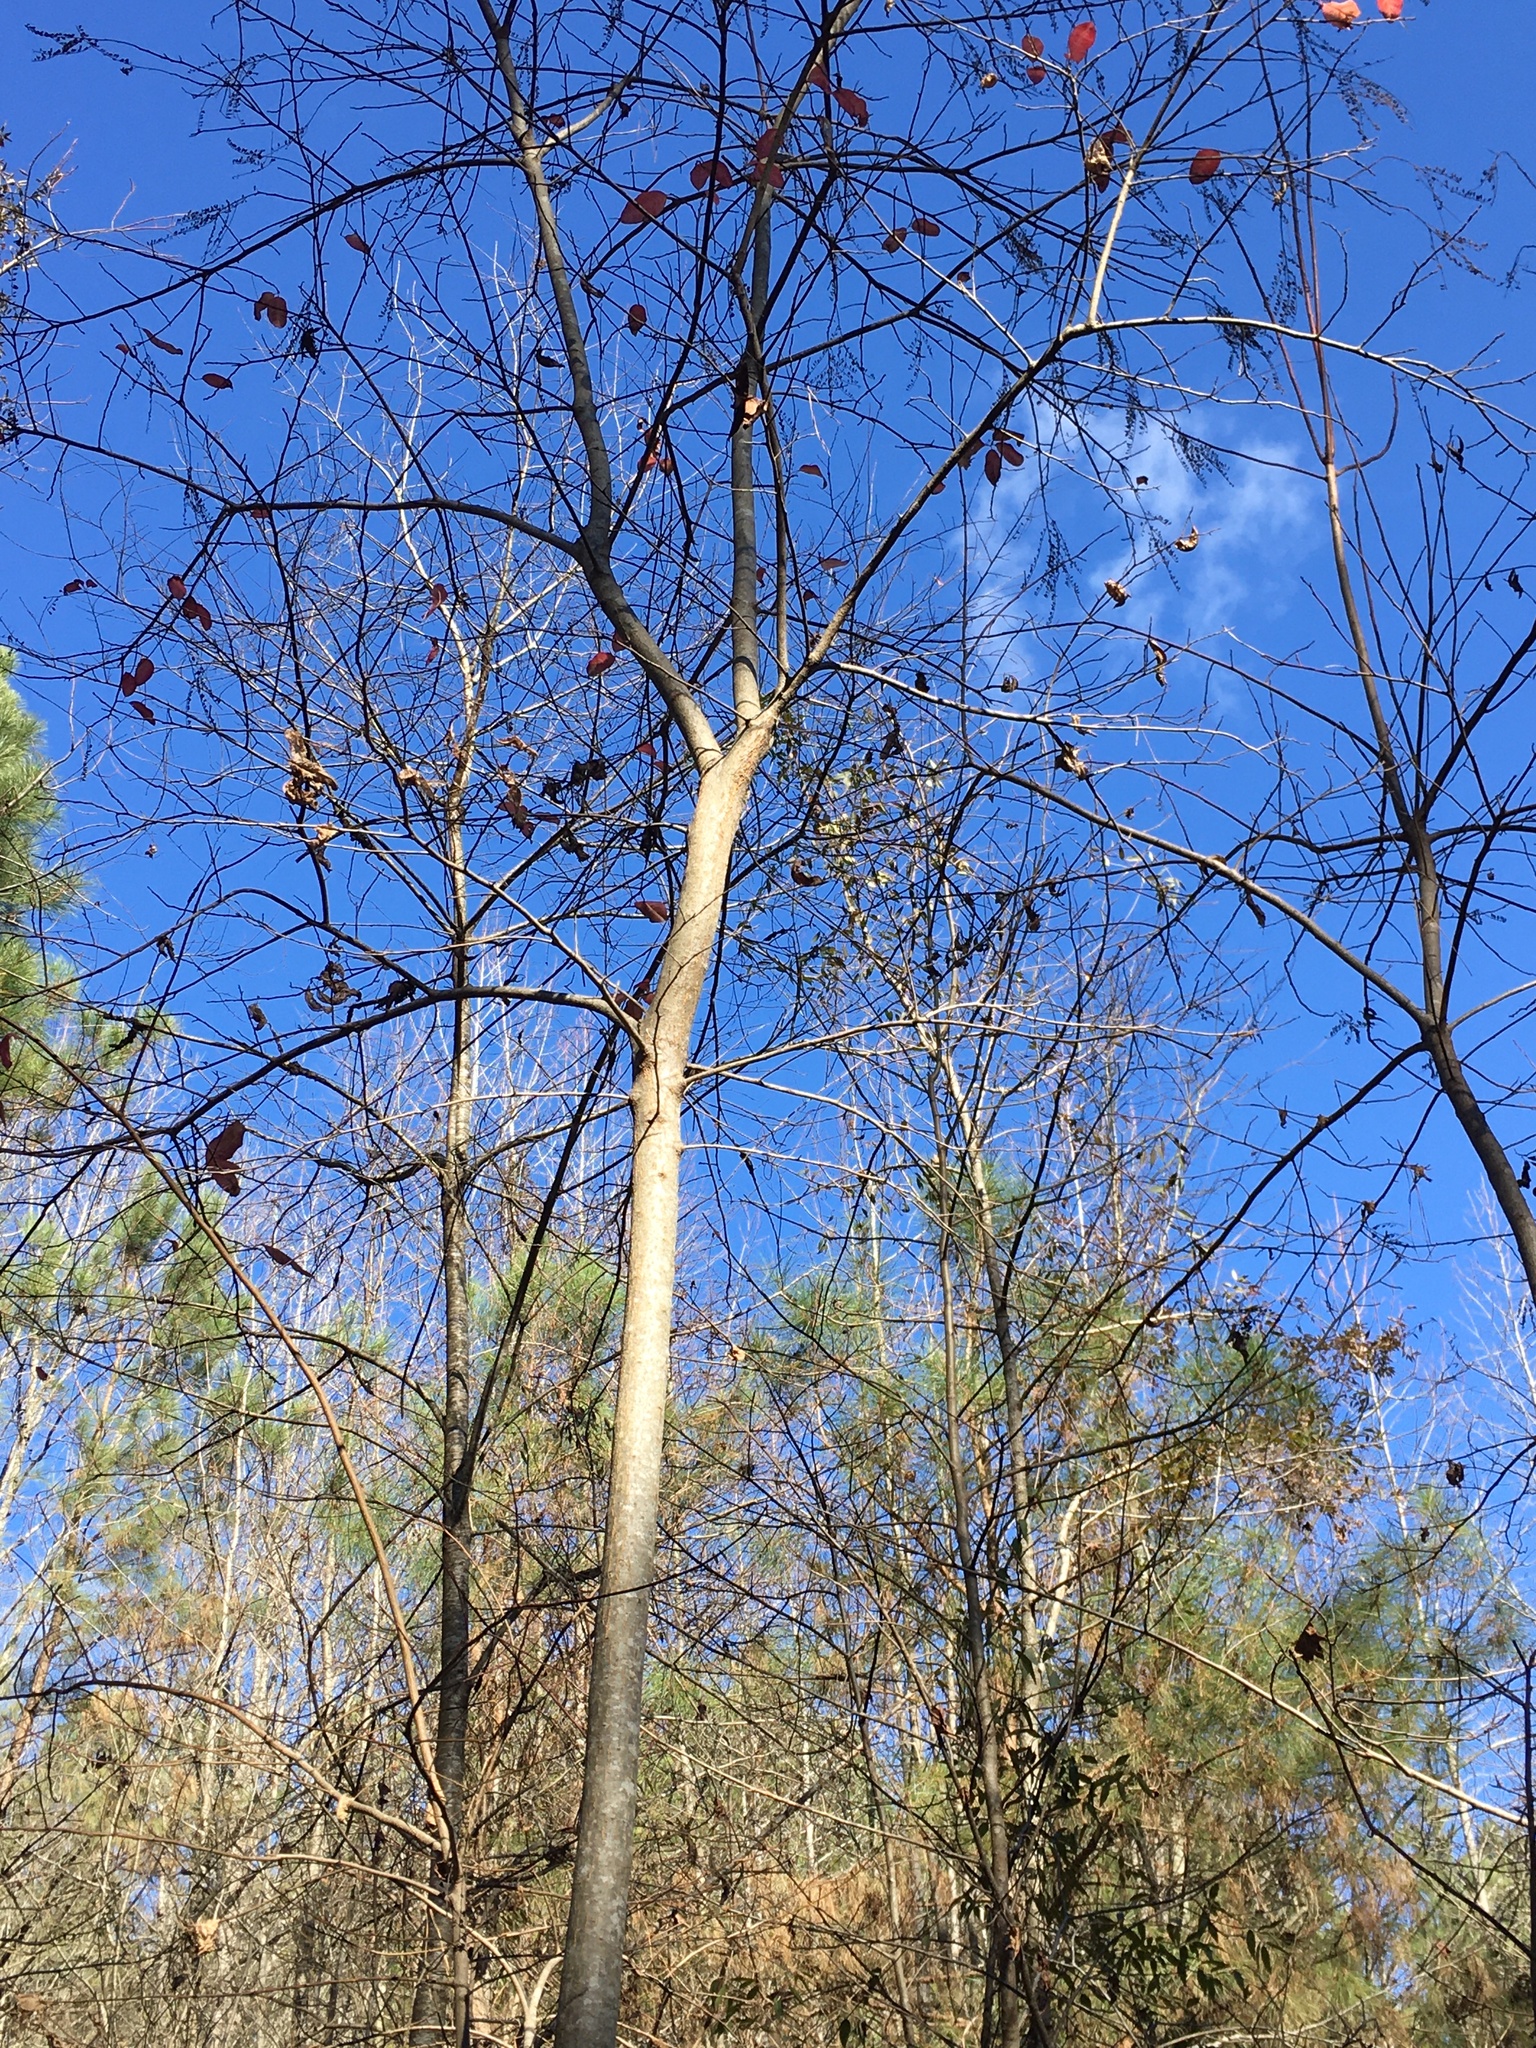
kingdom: Plantae
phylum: Tracheophyta
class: Magnoliopsida
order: Ericales
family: Ericaceae
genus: Oxydendrum
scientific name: Oxydendrum arboreum
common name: Sourwood
